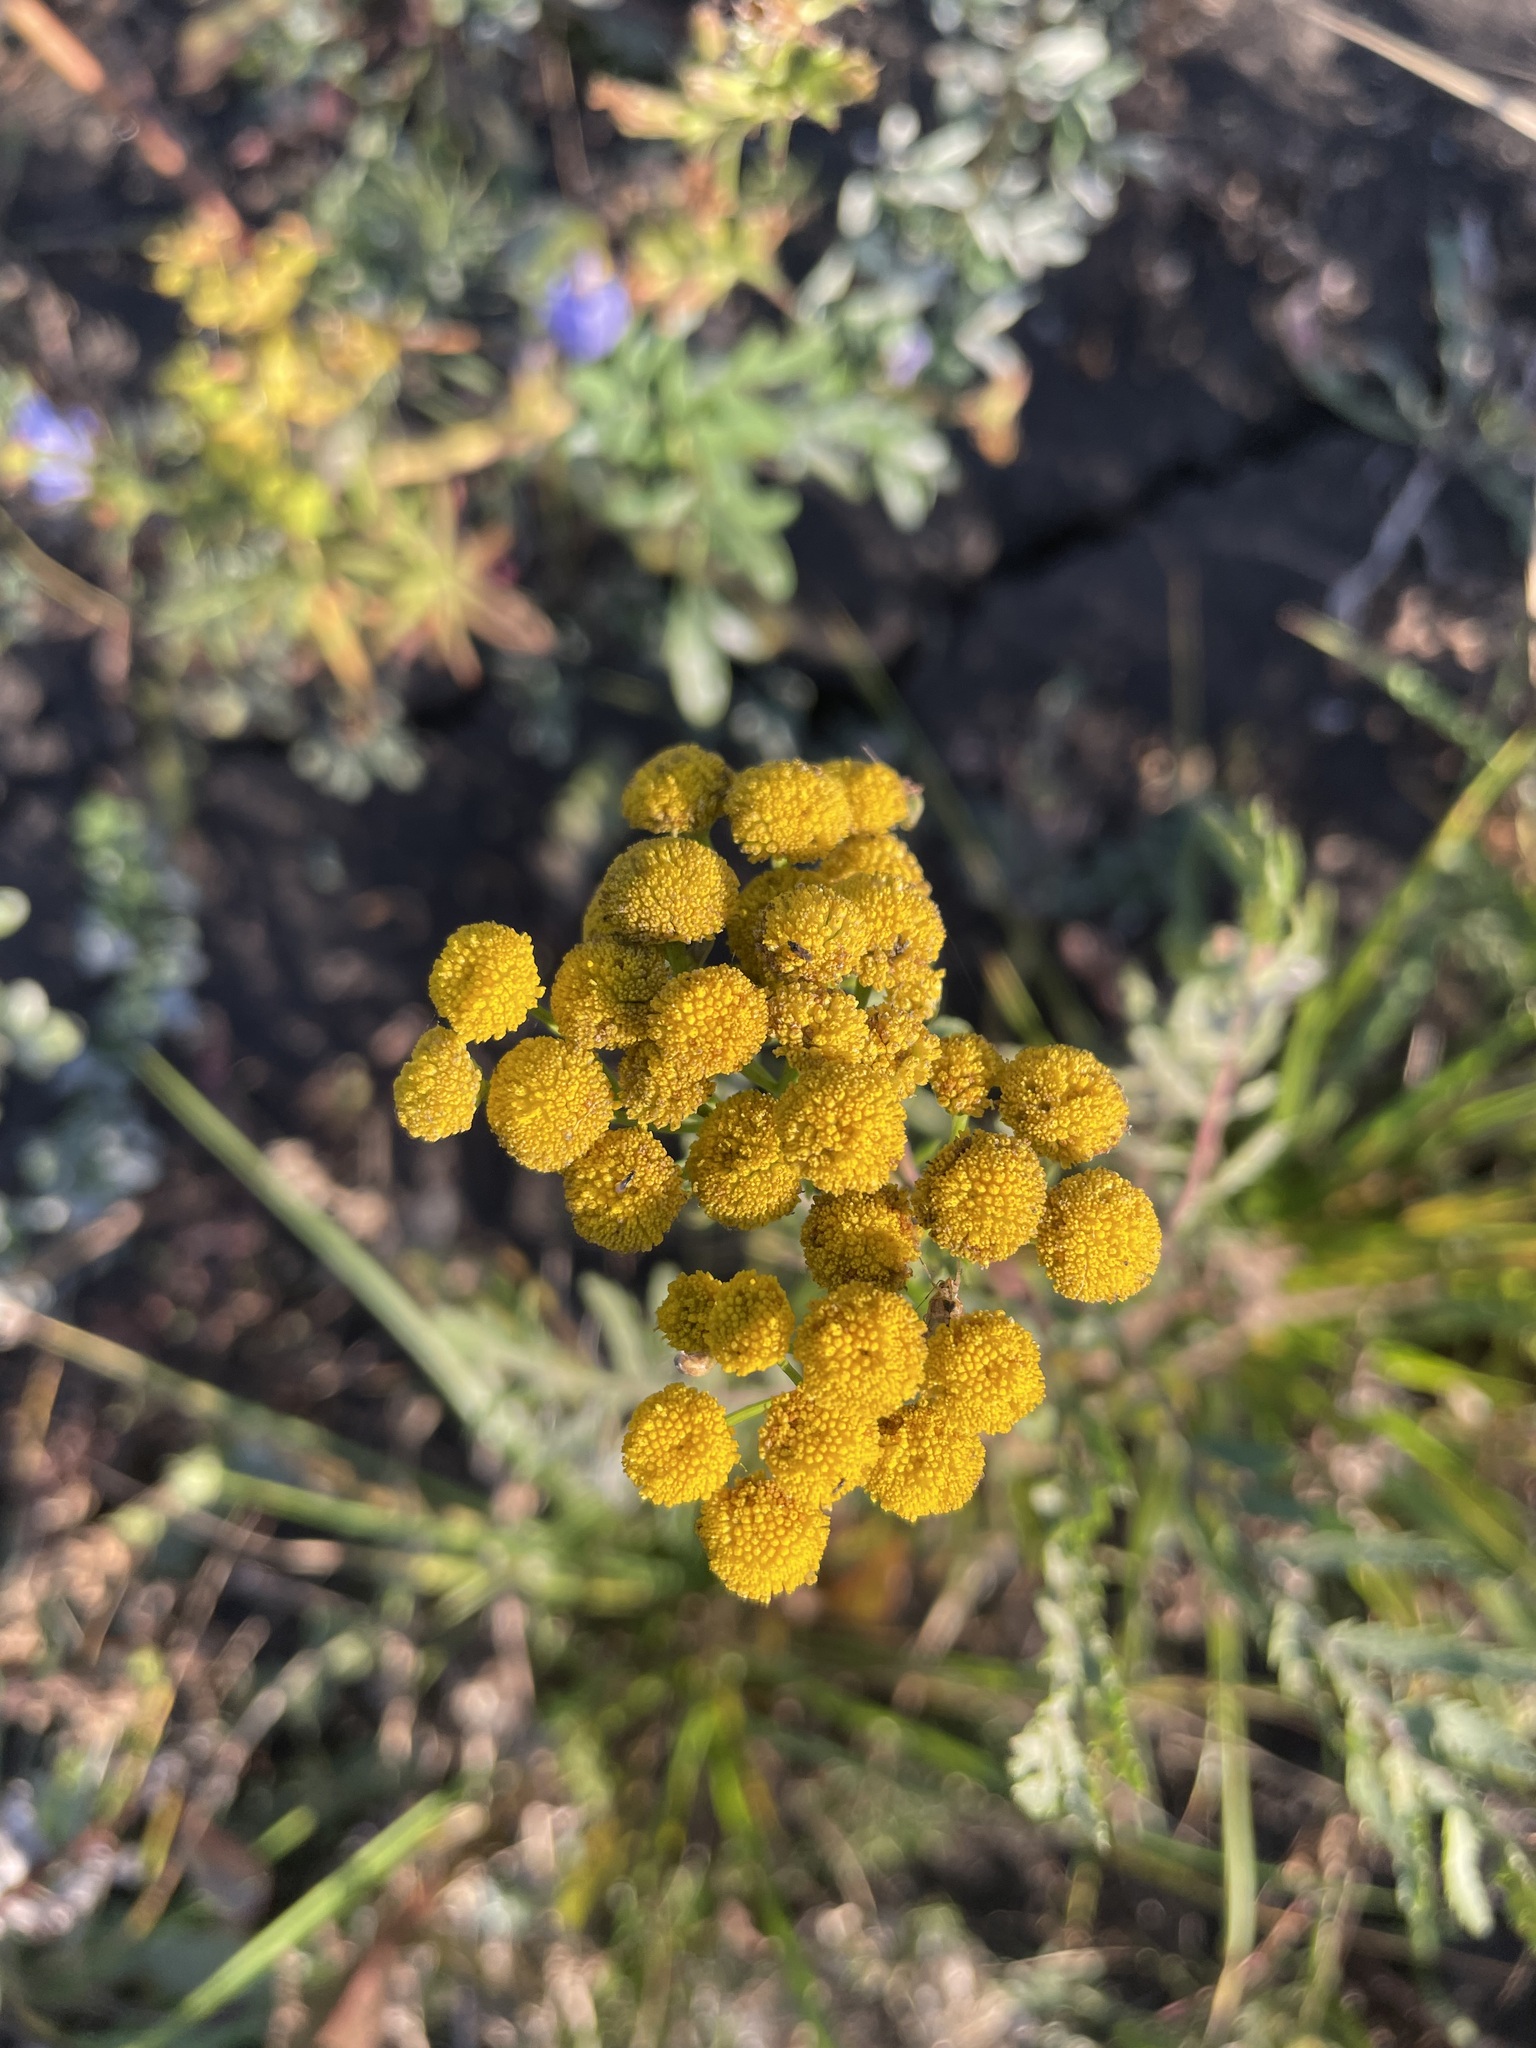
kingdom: Plantae
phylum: Tracheophyta
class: Magnoliopsida
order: Asterales
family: Asteraceae
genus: Tanacetum
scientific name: Tanacetum vulgare
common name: Common tansy
